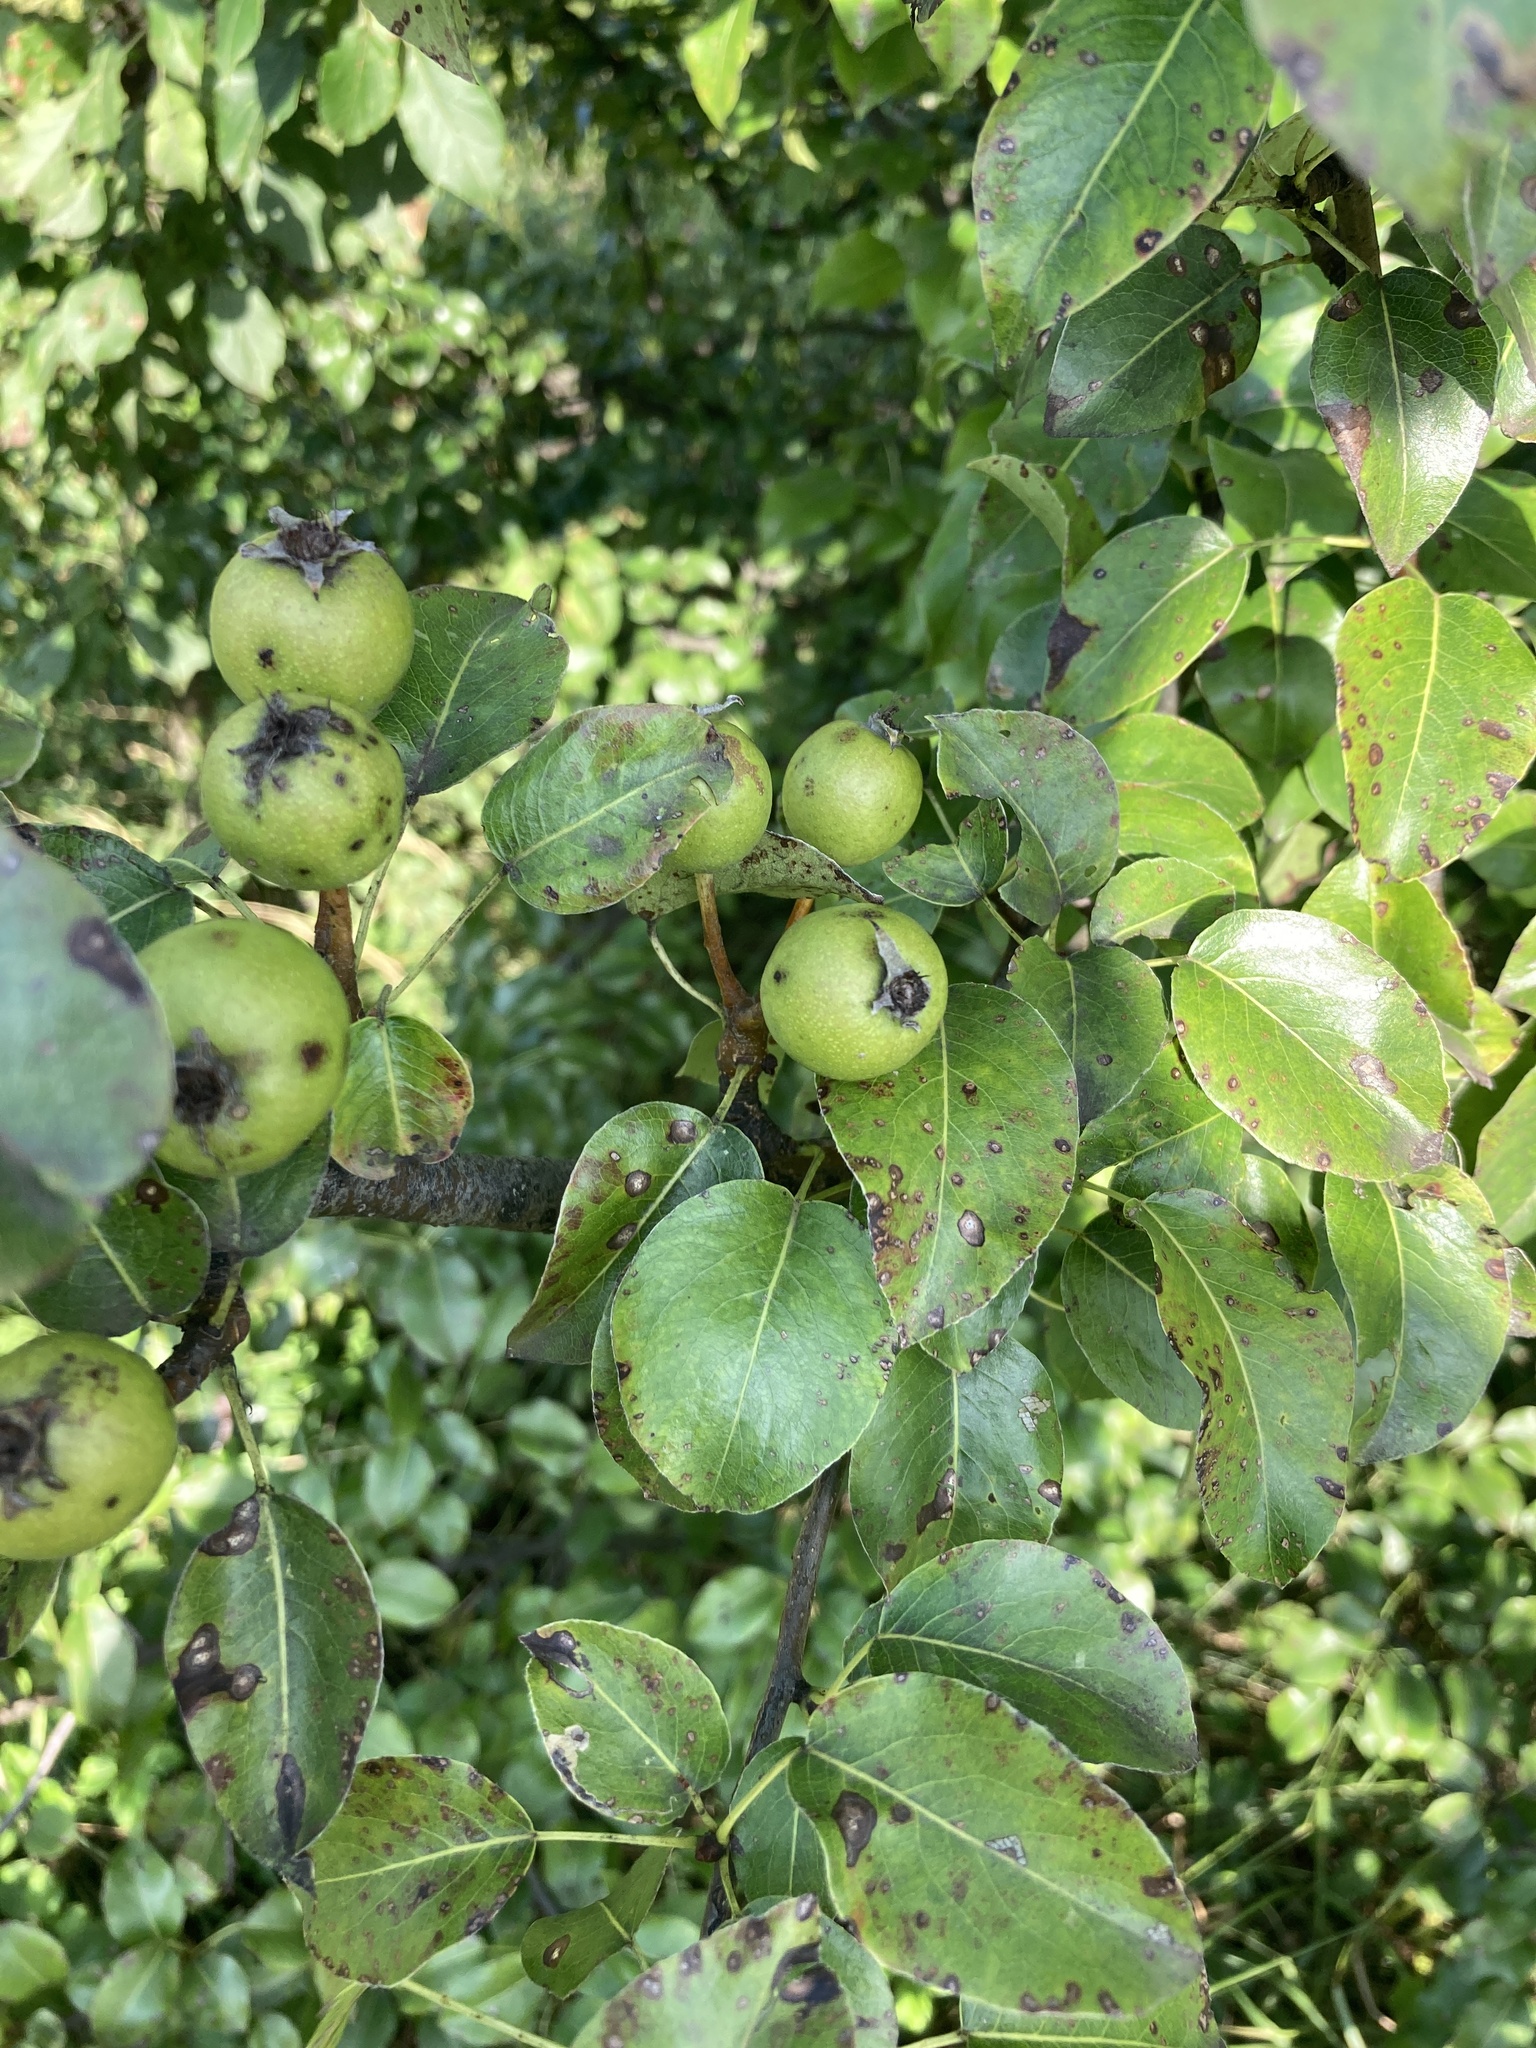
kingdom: Plantae
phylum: Tracheophyta
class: Magnoliopsida
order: Rosales
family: Rosaceae
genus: Pyrus
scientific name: Pyrus communis
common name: Pear
